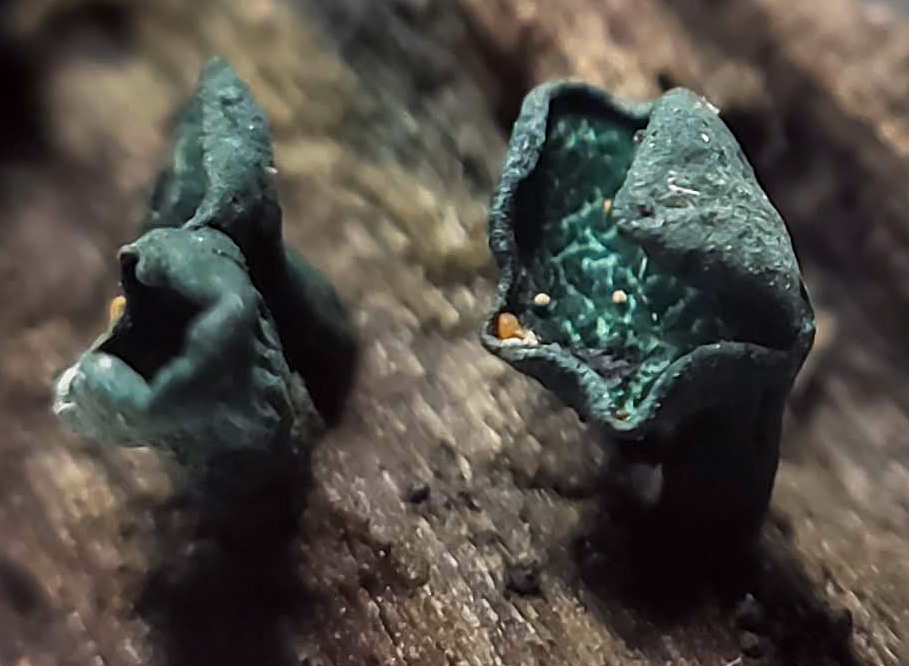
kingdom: Fungi
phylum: Ascomycota
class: Leotiomycetes
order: Helotiales
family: Chlorociboriaceae
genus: Chlorociboria
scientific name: Chlorociboria
